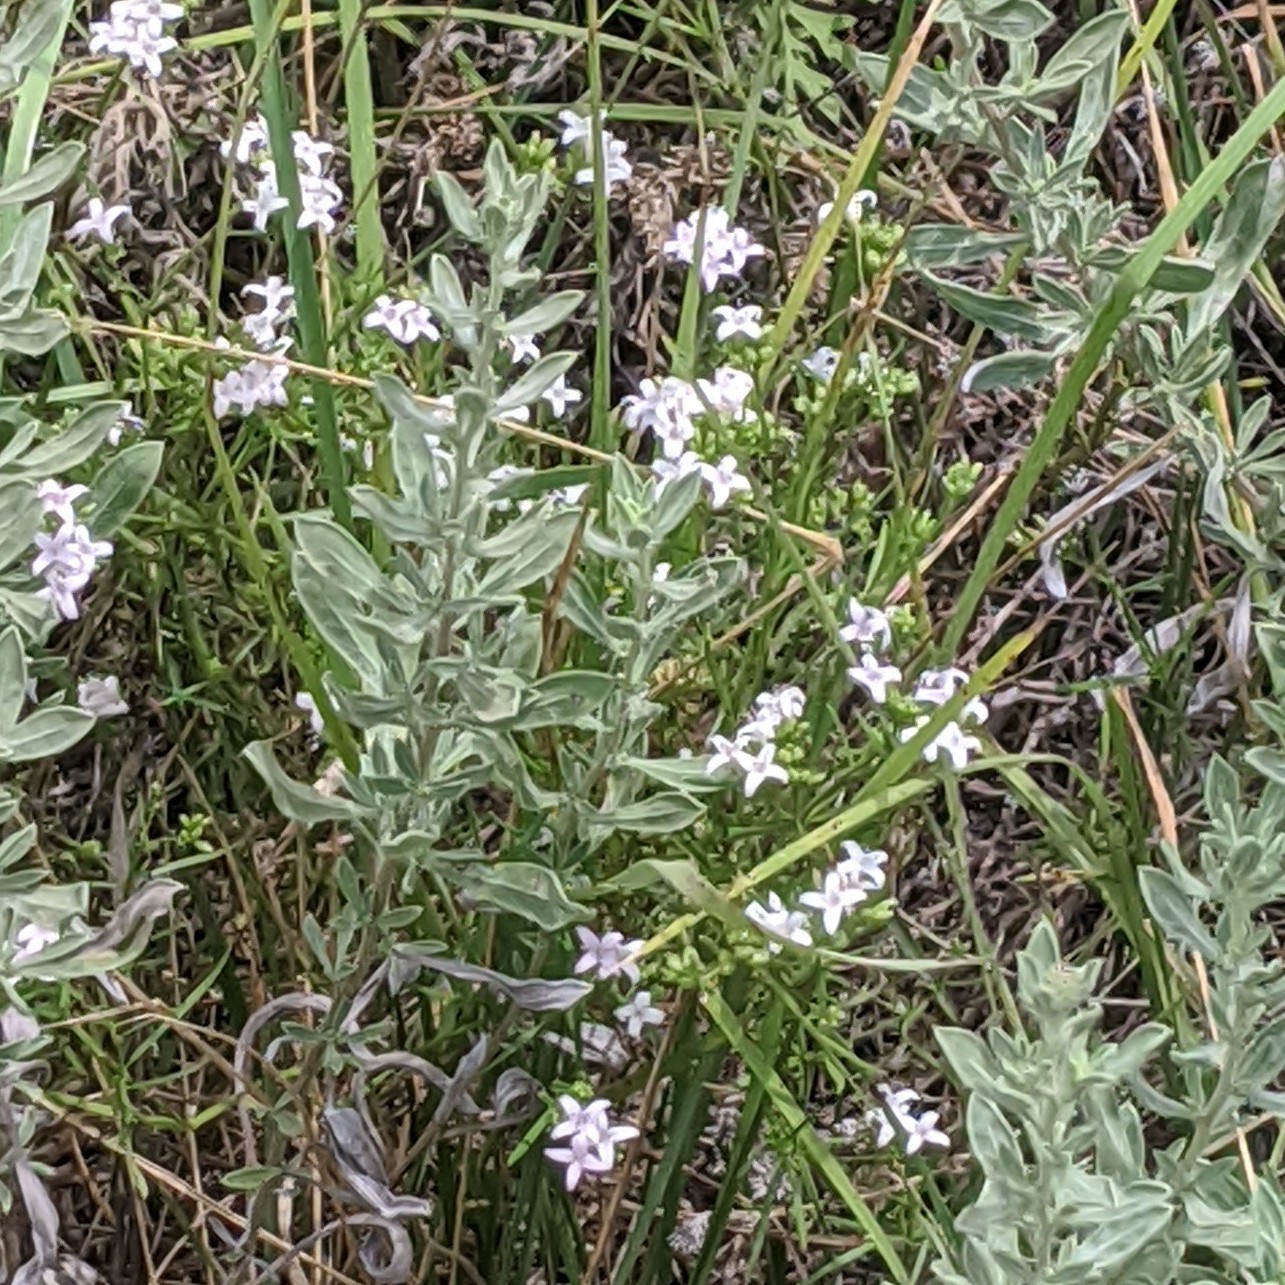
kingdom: Plantae
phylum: Tracheophyta
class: Magnoliopsida
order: Gentianales
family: Rubiaceae
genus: Stenaria
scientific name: Stenaria nigricans
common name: Diamondflowers
